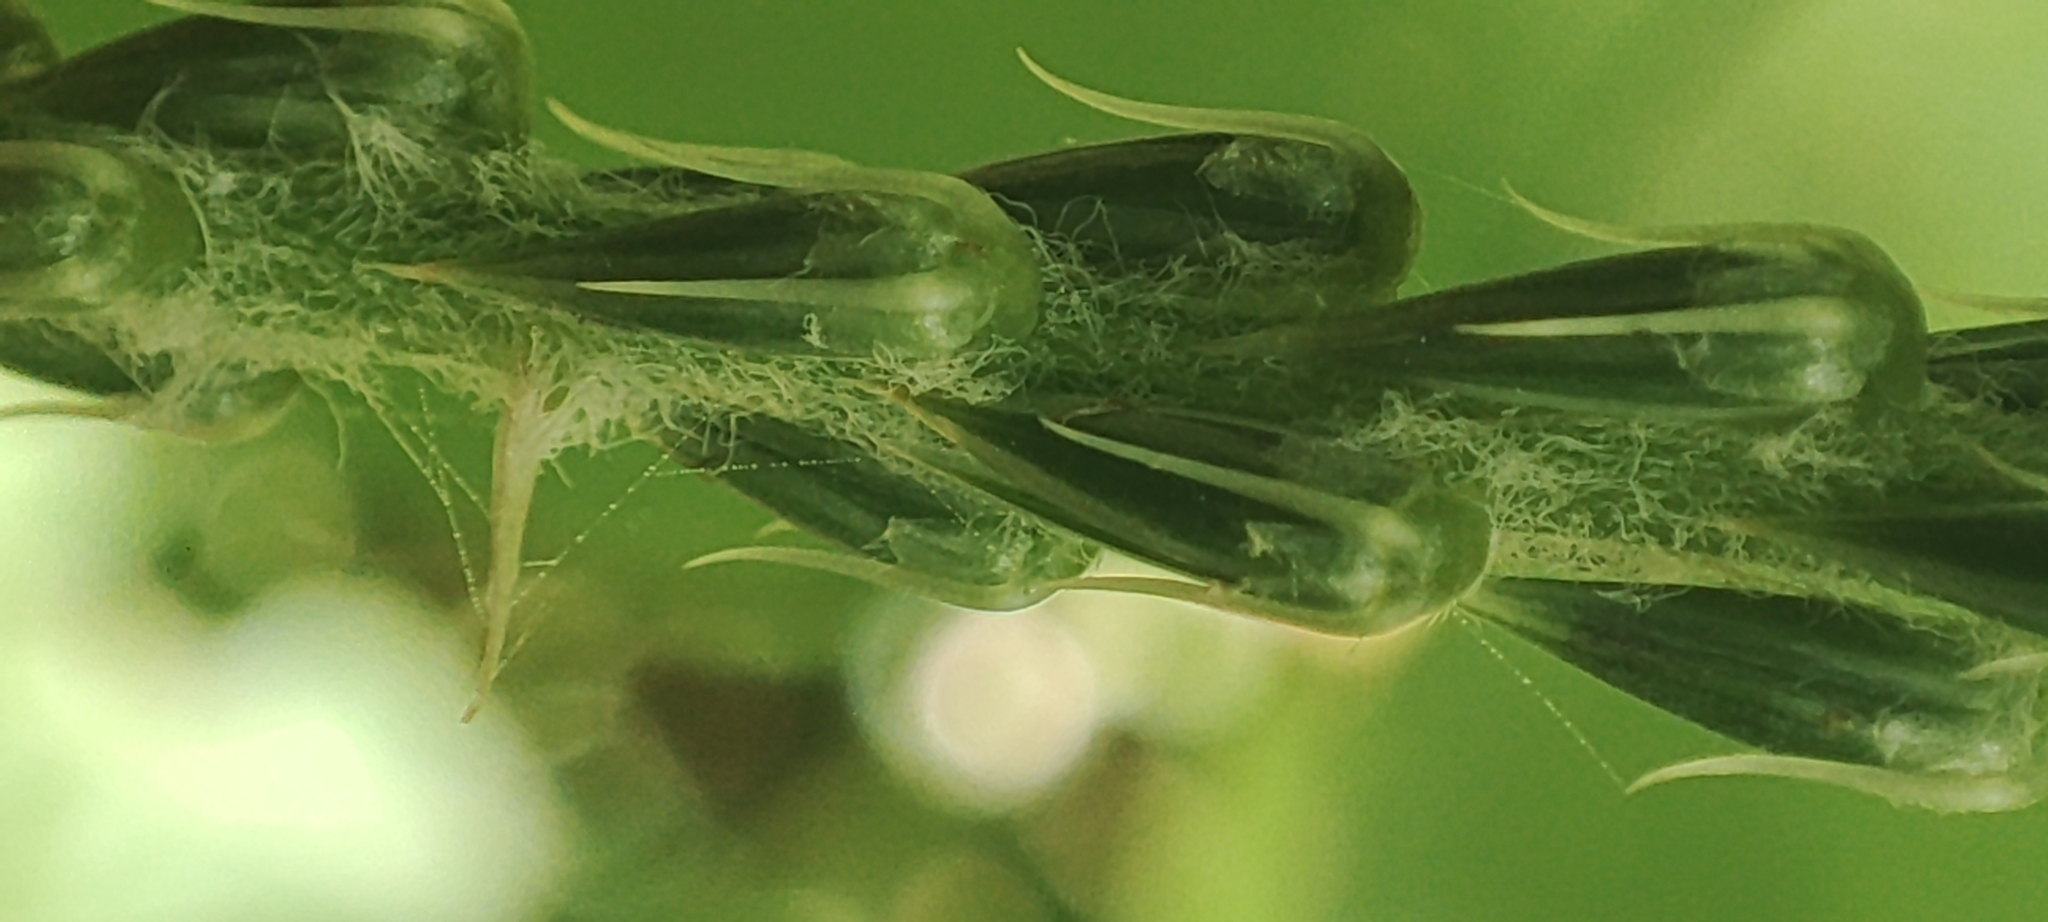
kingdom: Plantae
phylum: Tracheophyta
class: Magnoliopsida
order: Caryophyllales
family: Amaranthaceae
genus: Achyranthes
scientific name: Achyranthes aspera
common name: Devil's horsewhip
